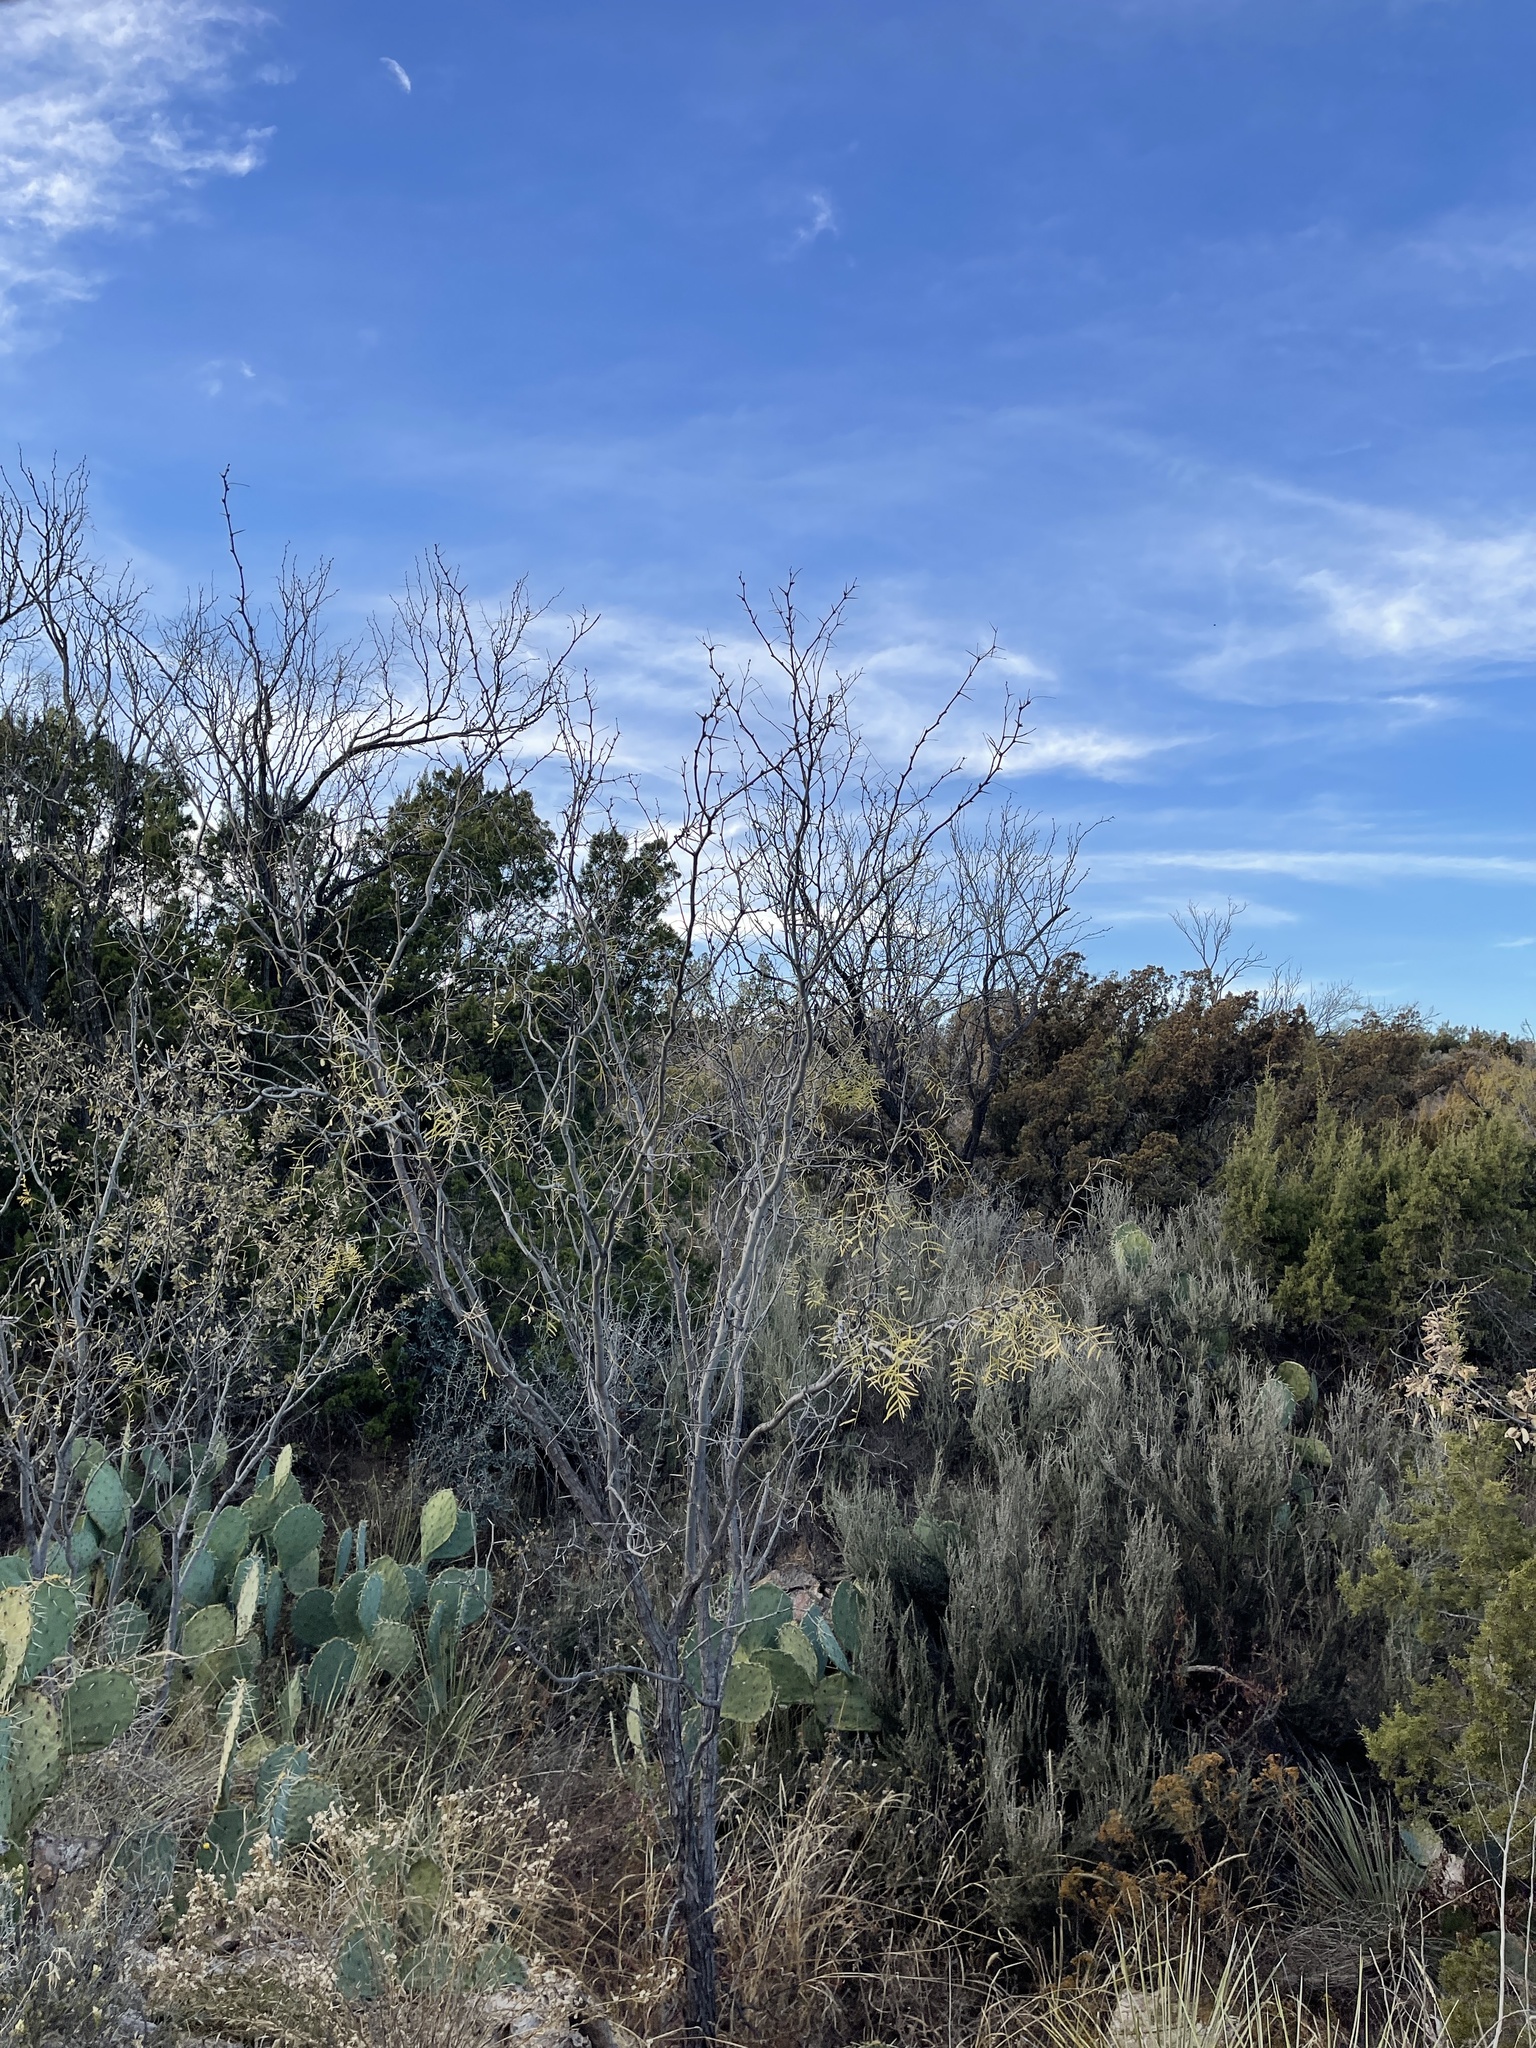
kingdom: Plantae
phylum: Tracheophyta
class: Magnoliopsida
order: Fabales
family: Fabaceae
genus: Prosopis
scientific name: Prosopis glandulosa
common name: Honey mesquite
